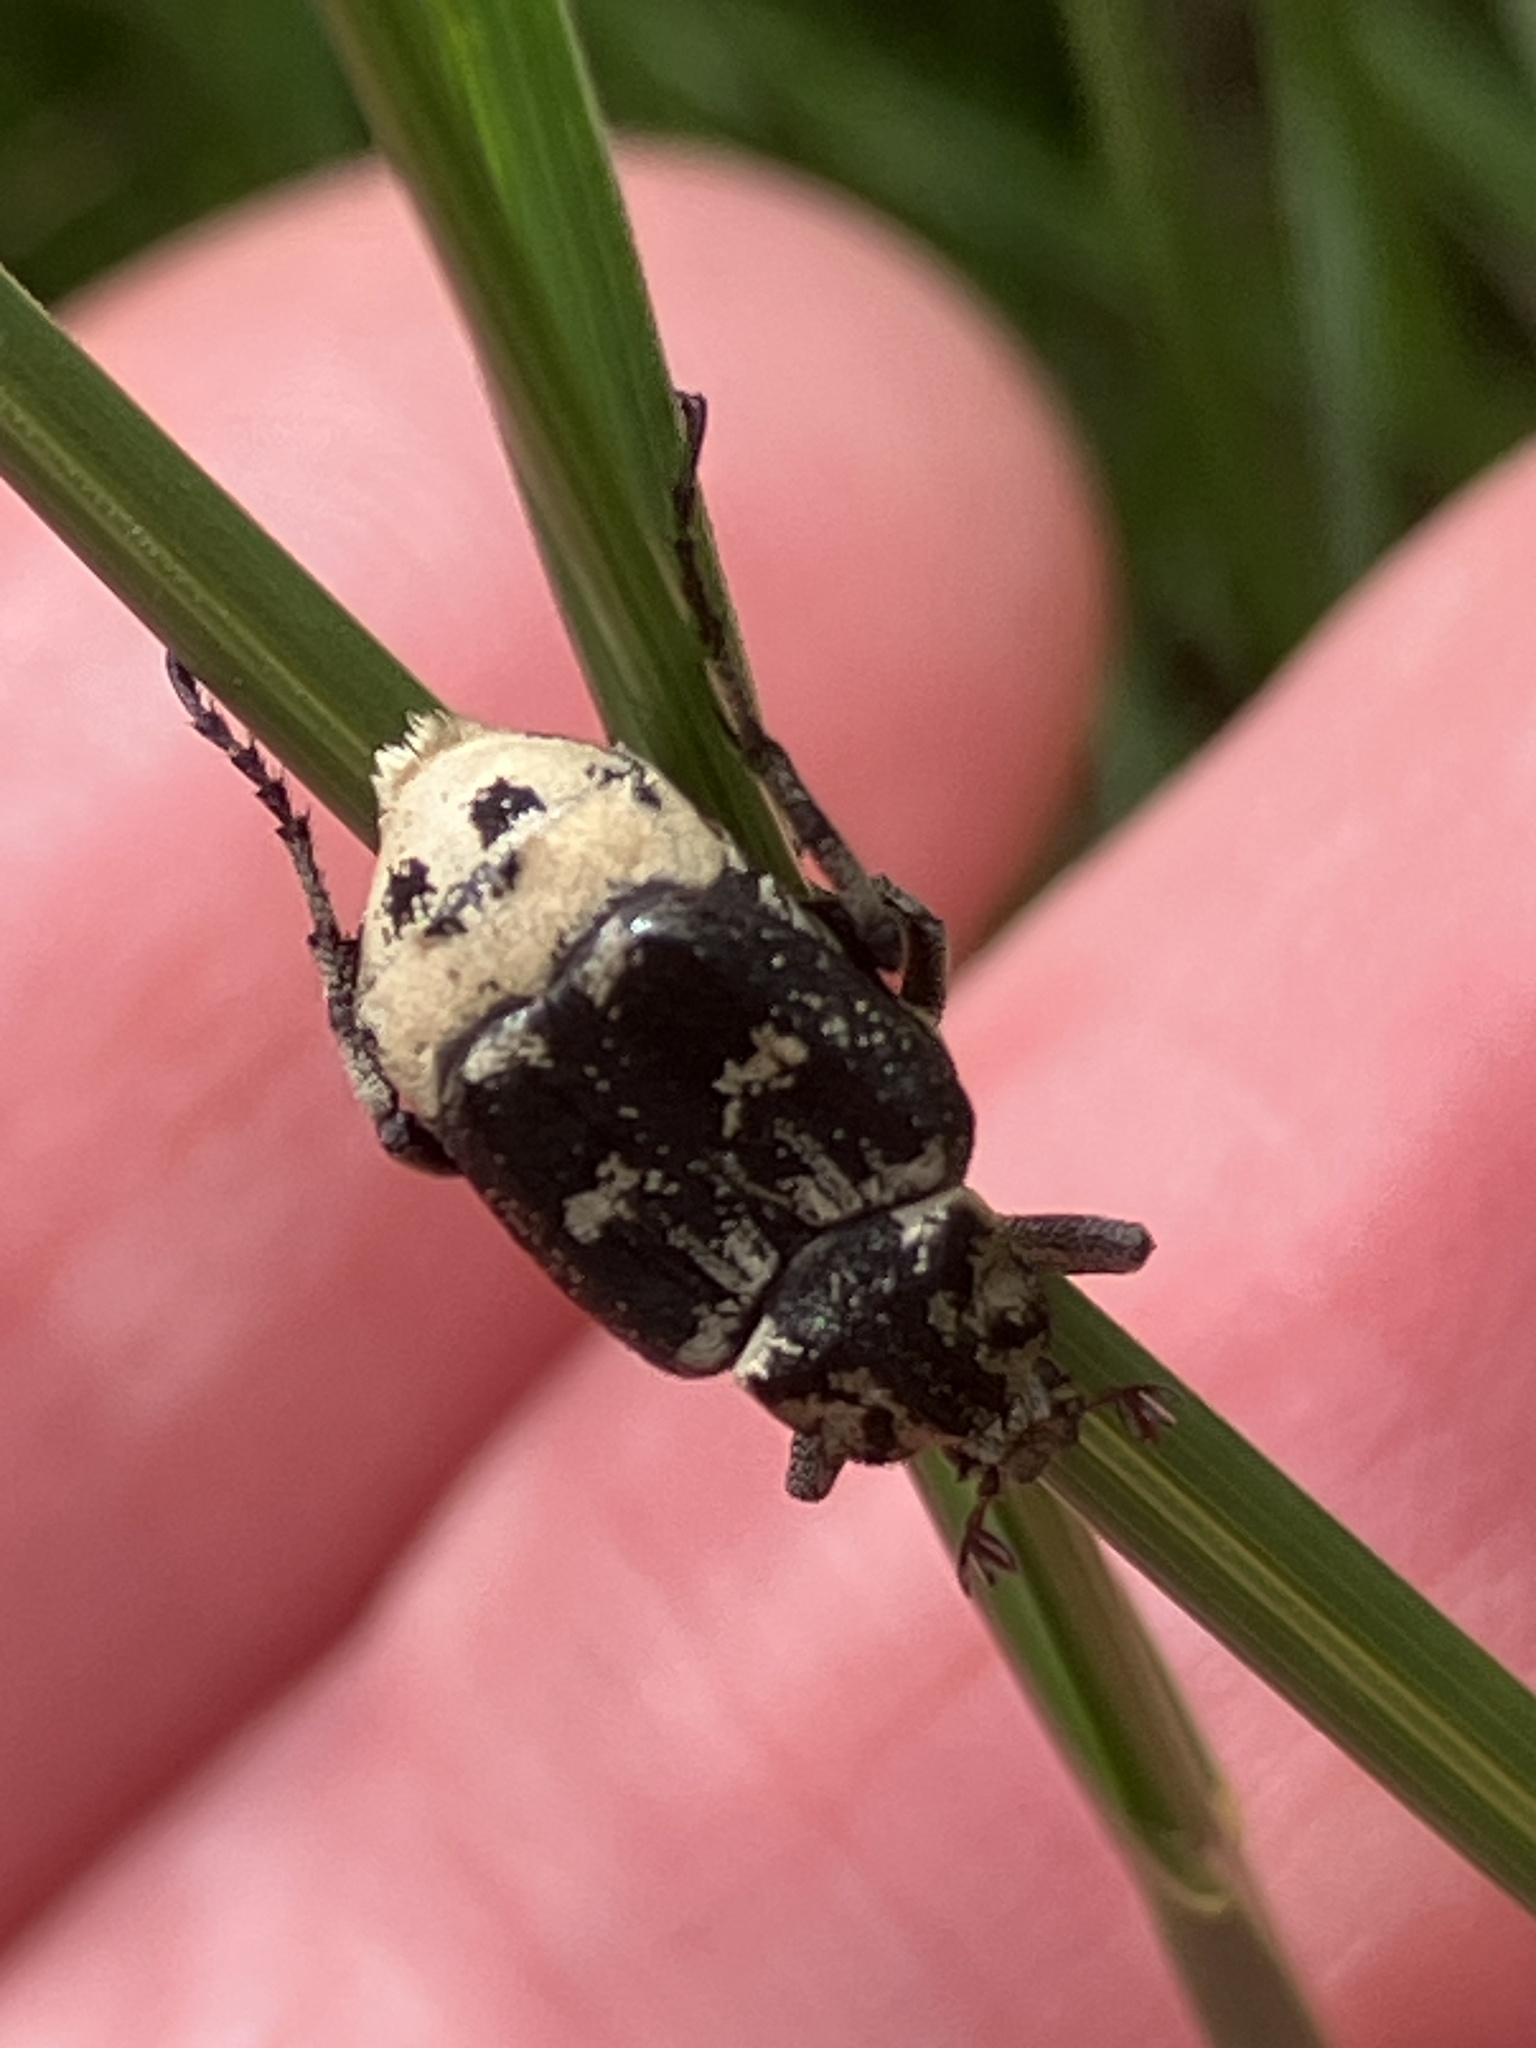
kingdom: Animalia
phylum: Arthropoda
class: Insecta
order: Coleoptera
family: Scarabaeidae
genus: Valgus
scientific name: Valgus hemipterus
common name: Bug flower chafer
